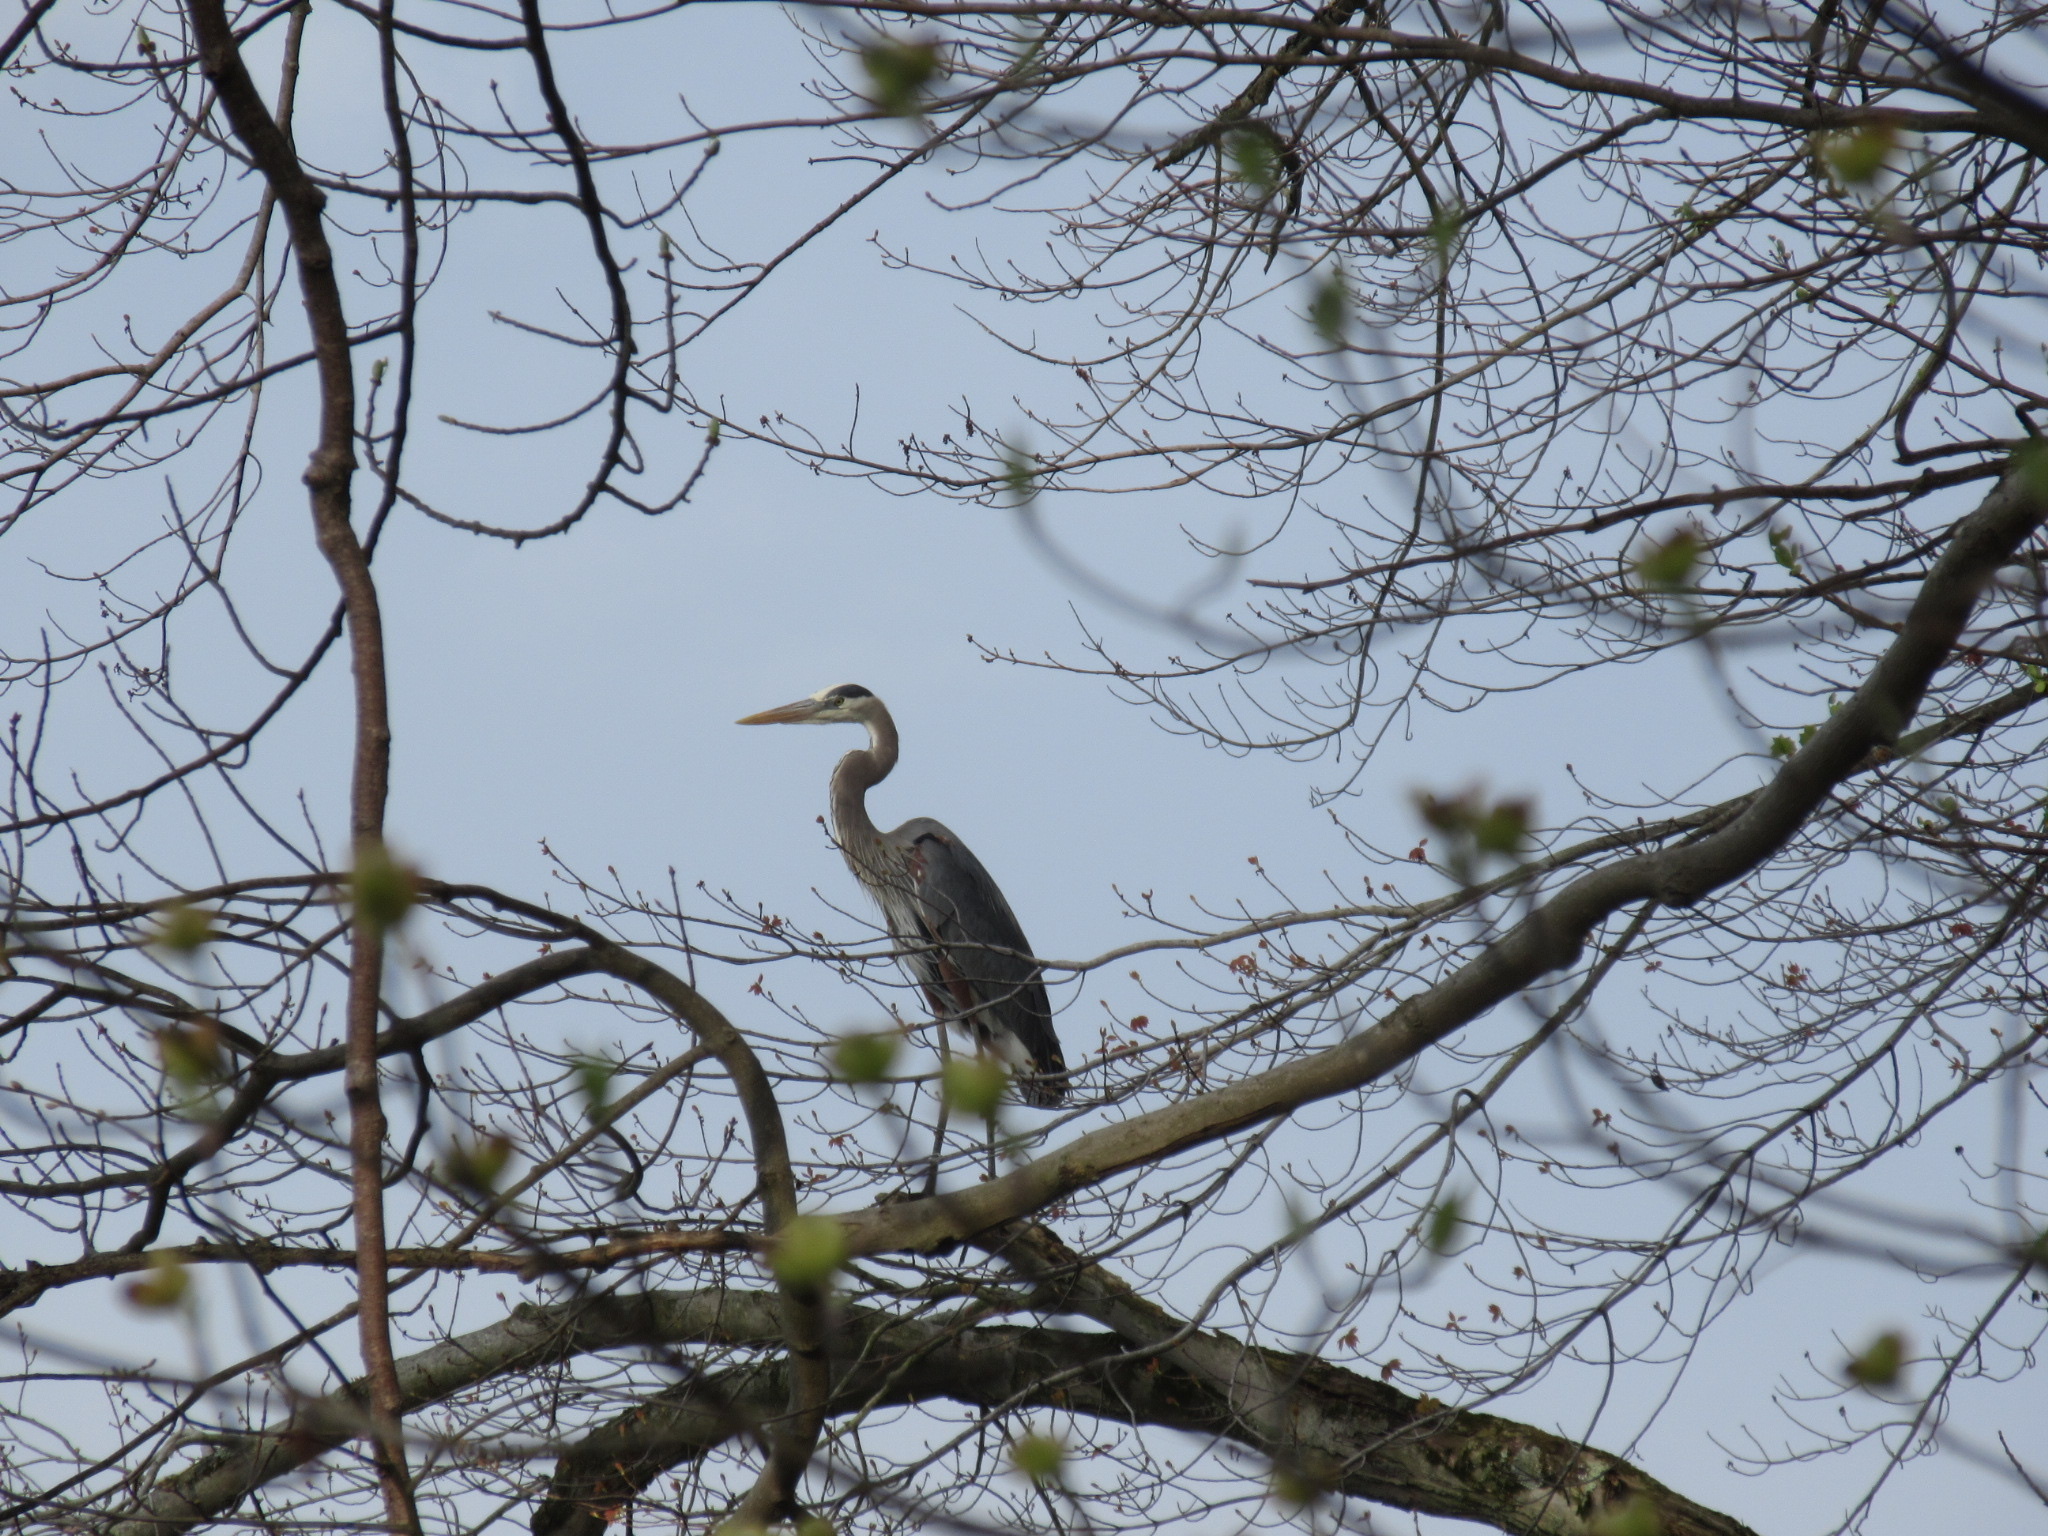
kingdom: Animalia
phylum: Chordata
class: Aves
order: Pelecaniformes
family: Ardeidae
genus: Ardea
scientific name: Ardea herodias
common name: Great blue heron
